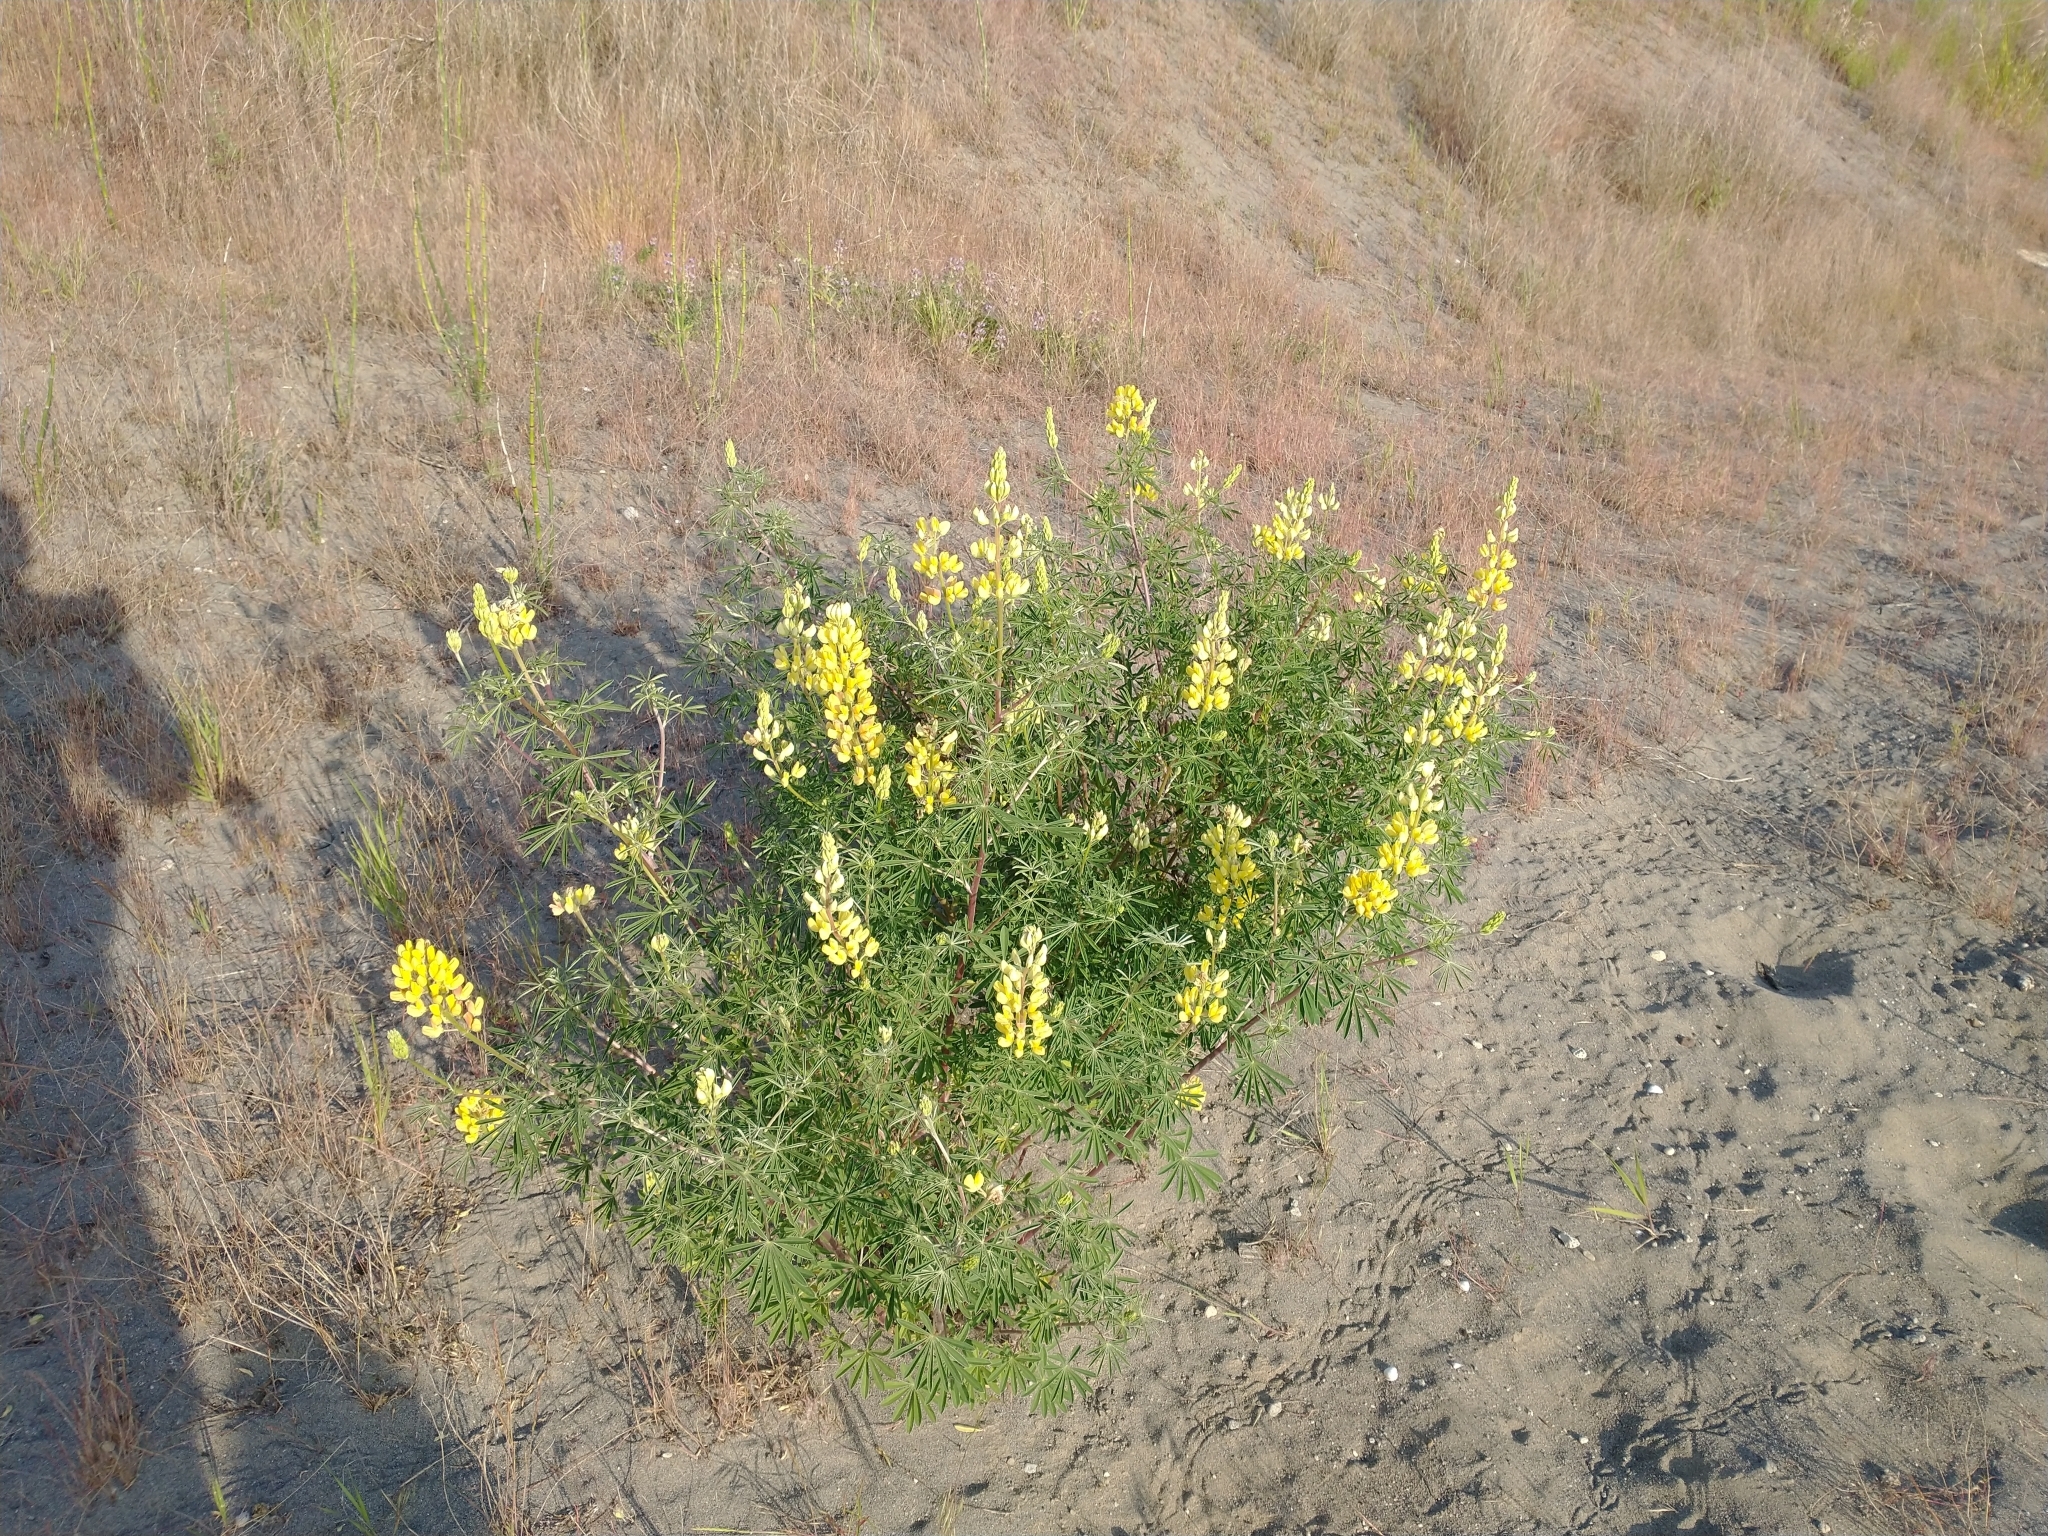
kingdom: Plantae
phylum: Tracheophyta
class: Magnoliopsida
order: Fabales
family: Fabaceae
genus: Lupinus
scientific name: Lupinus arboreus
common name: Yellow bush lupine
